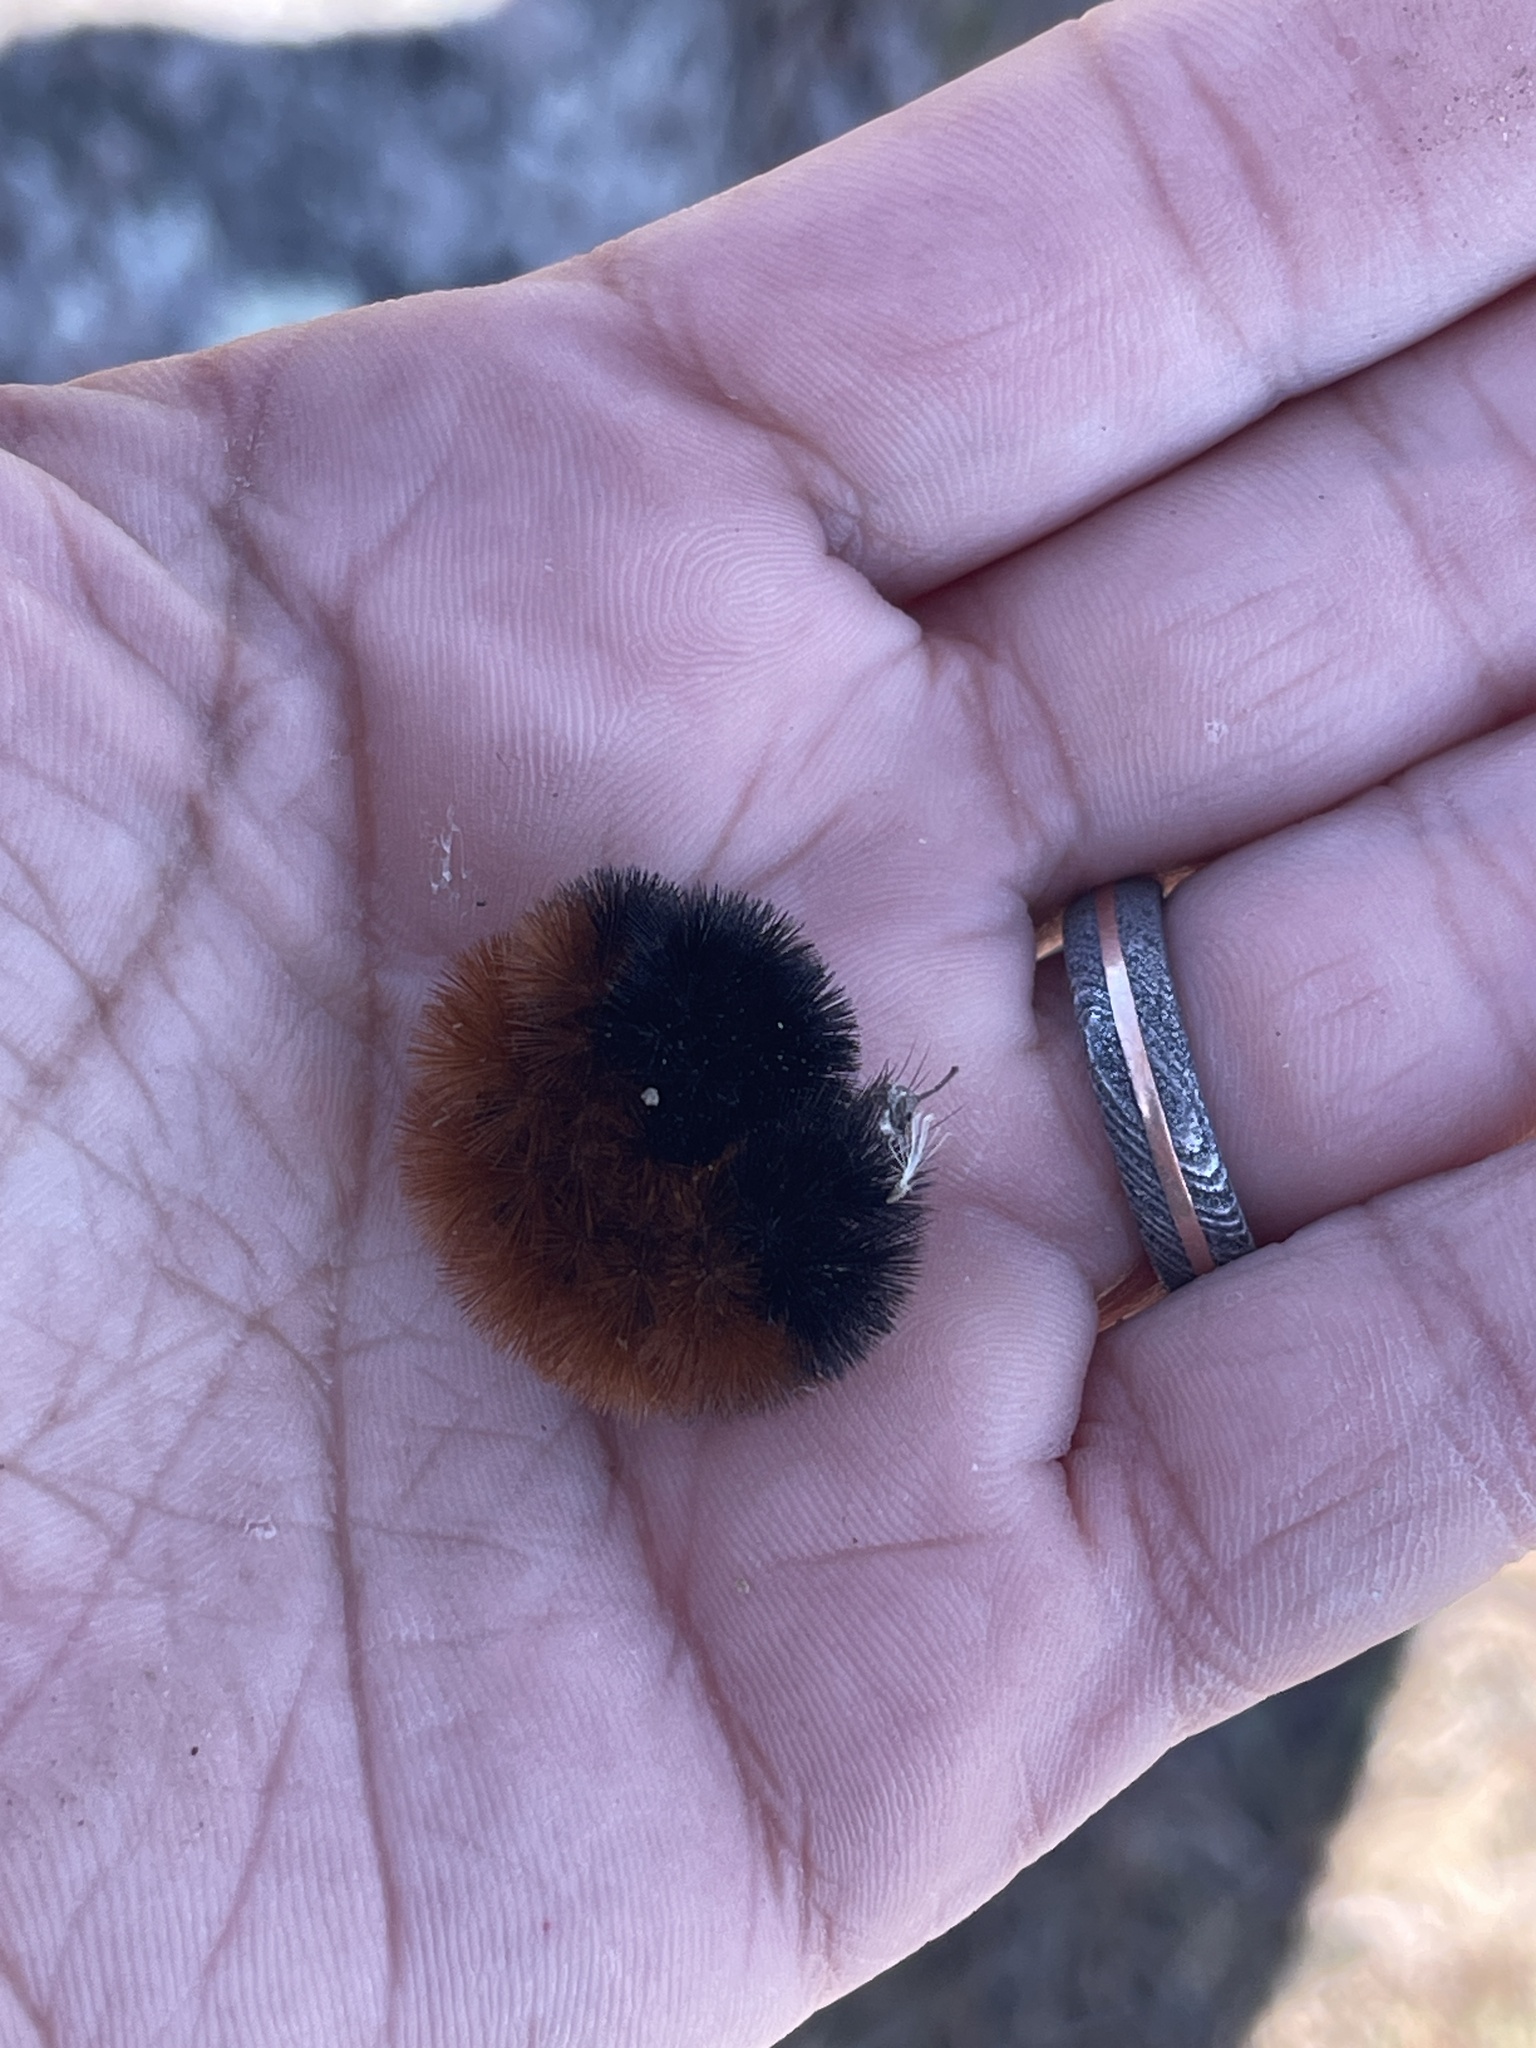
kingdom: Animalia
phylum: Arthropoda
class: Insecta
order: Lepidoptera
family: Erebidae
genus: Pyrrharctia
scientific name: Pyrrharctia isabella
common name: Isabella tiger moth
